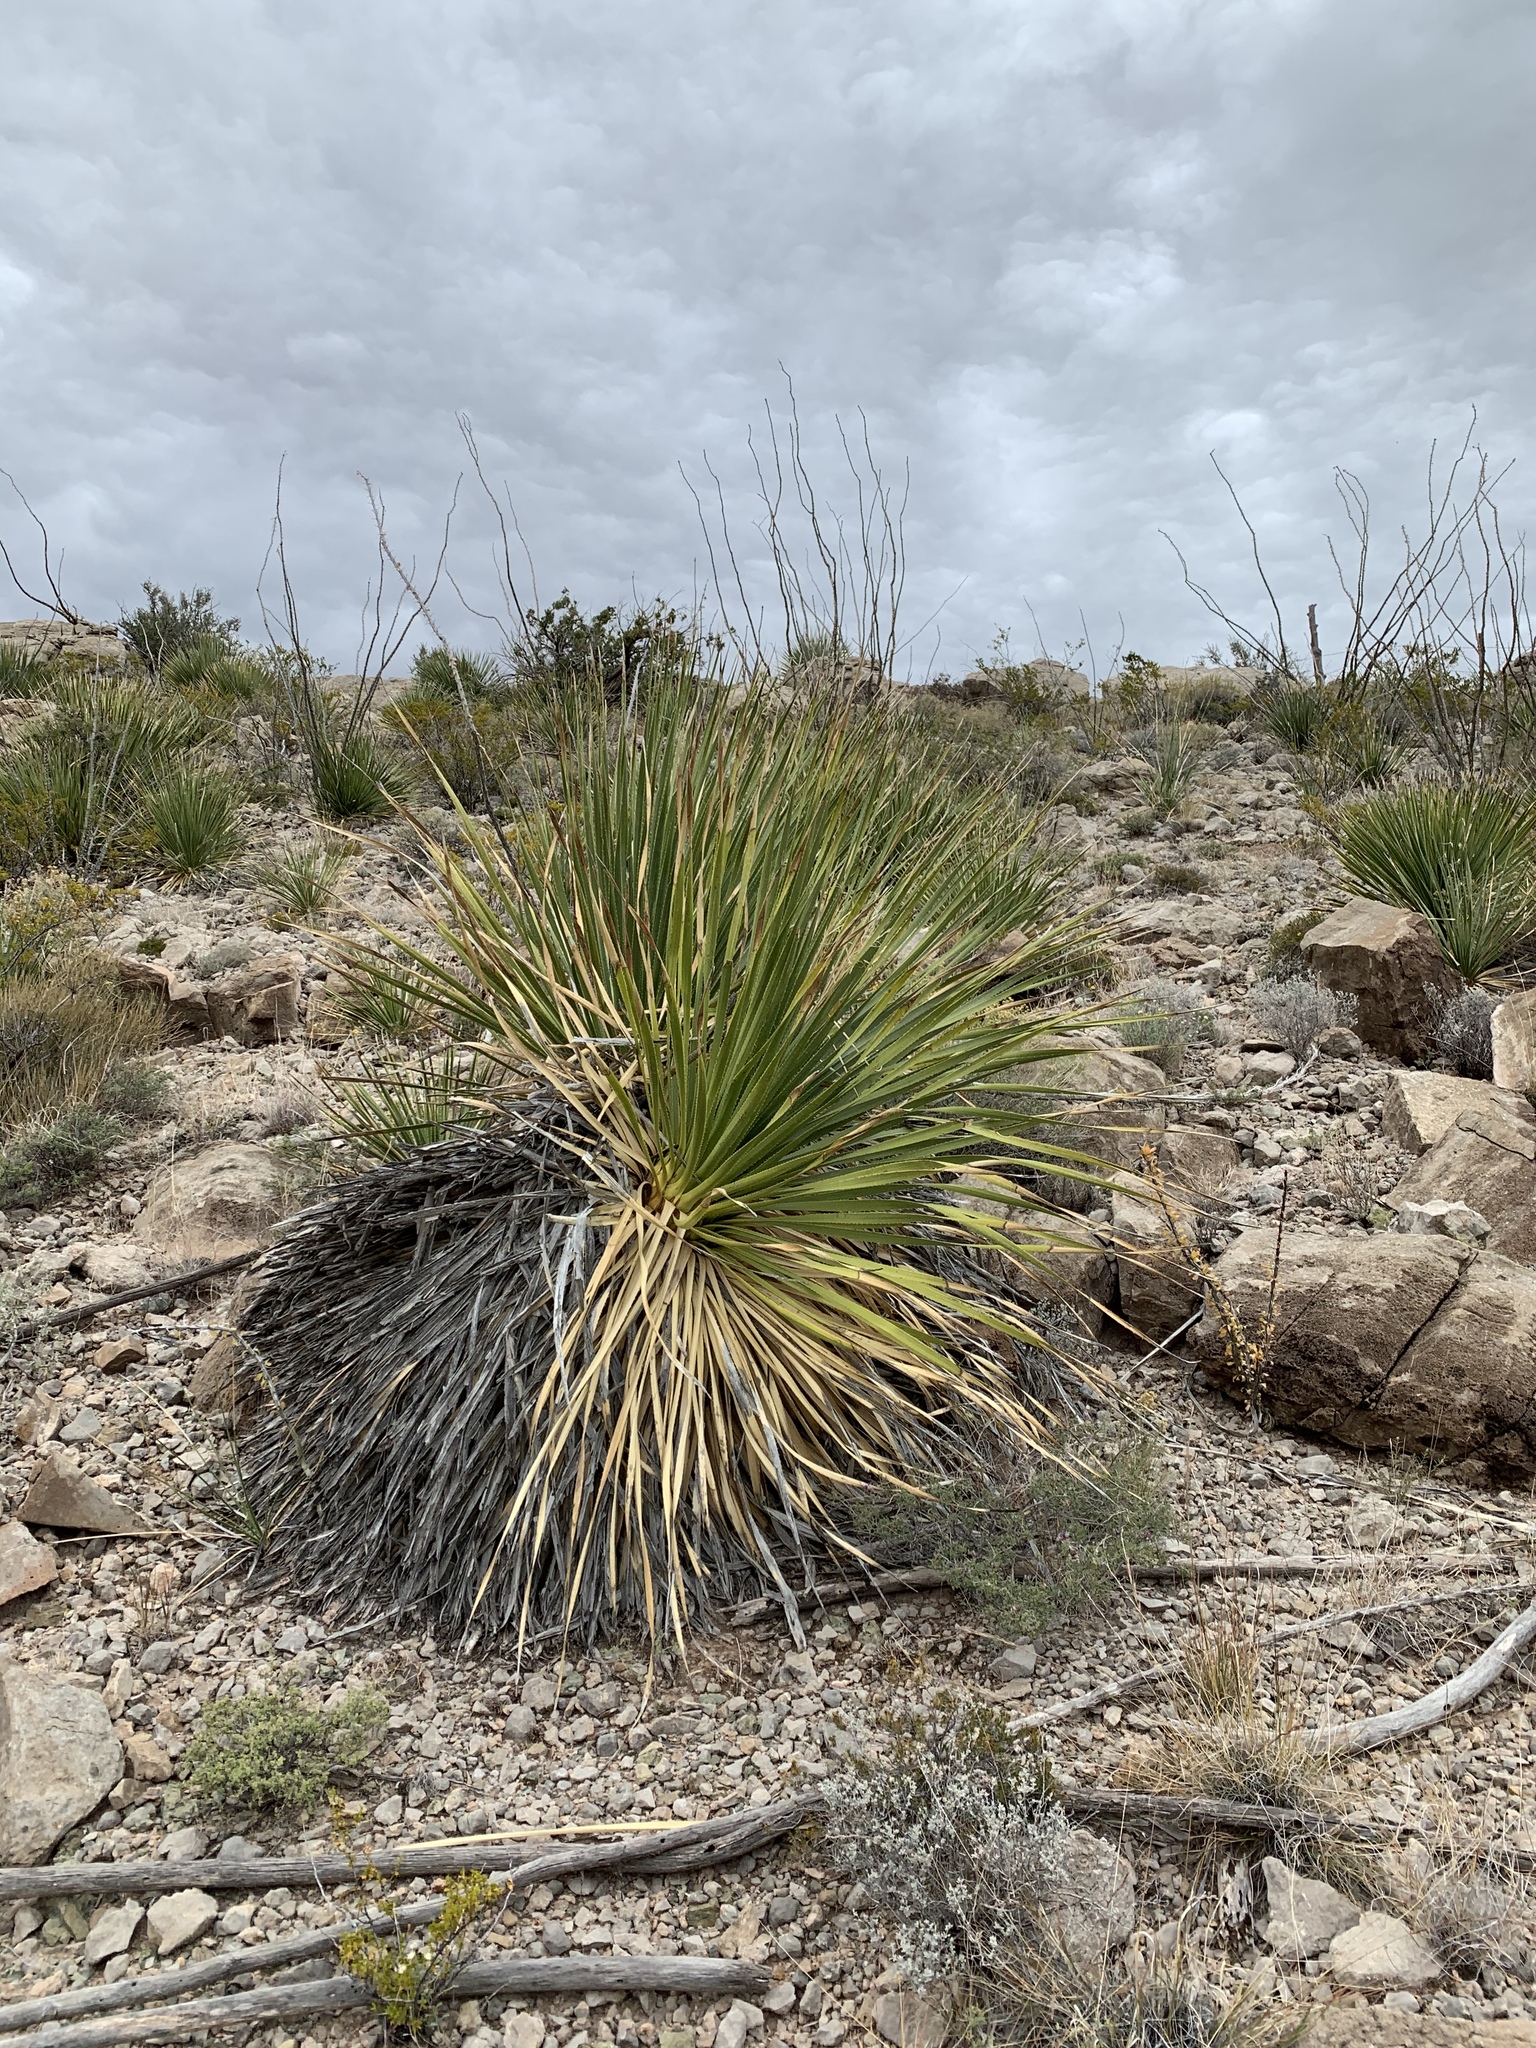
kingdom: Plantae
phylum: Tracheophyta
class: Liliopsida
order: Asparagales
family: Asparagaceae
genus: Dasylirion
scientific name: Dasylirion wheeleri
